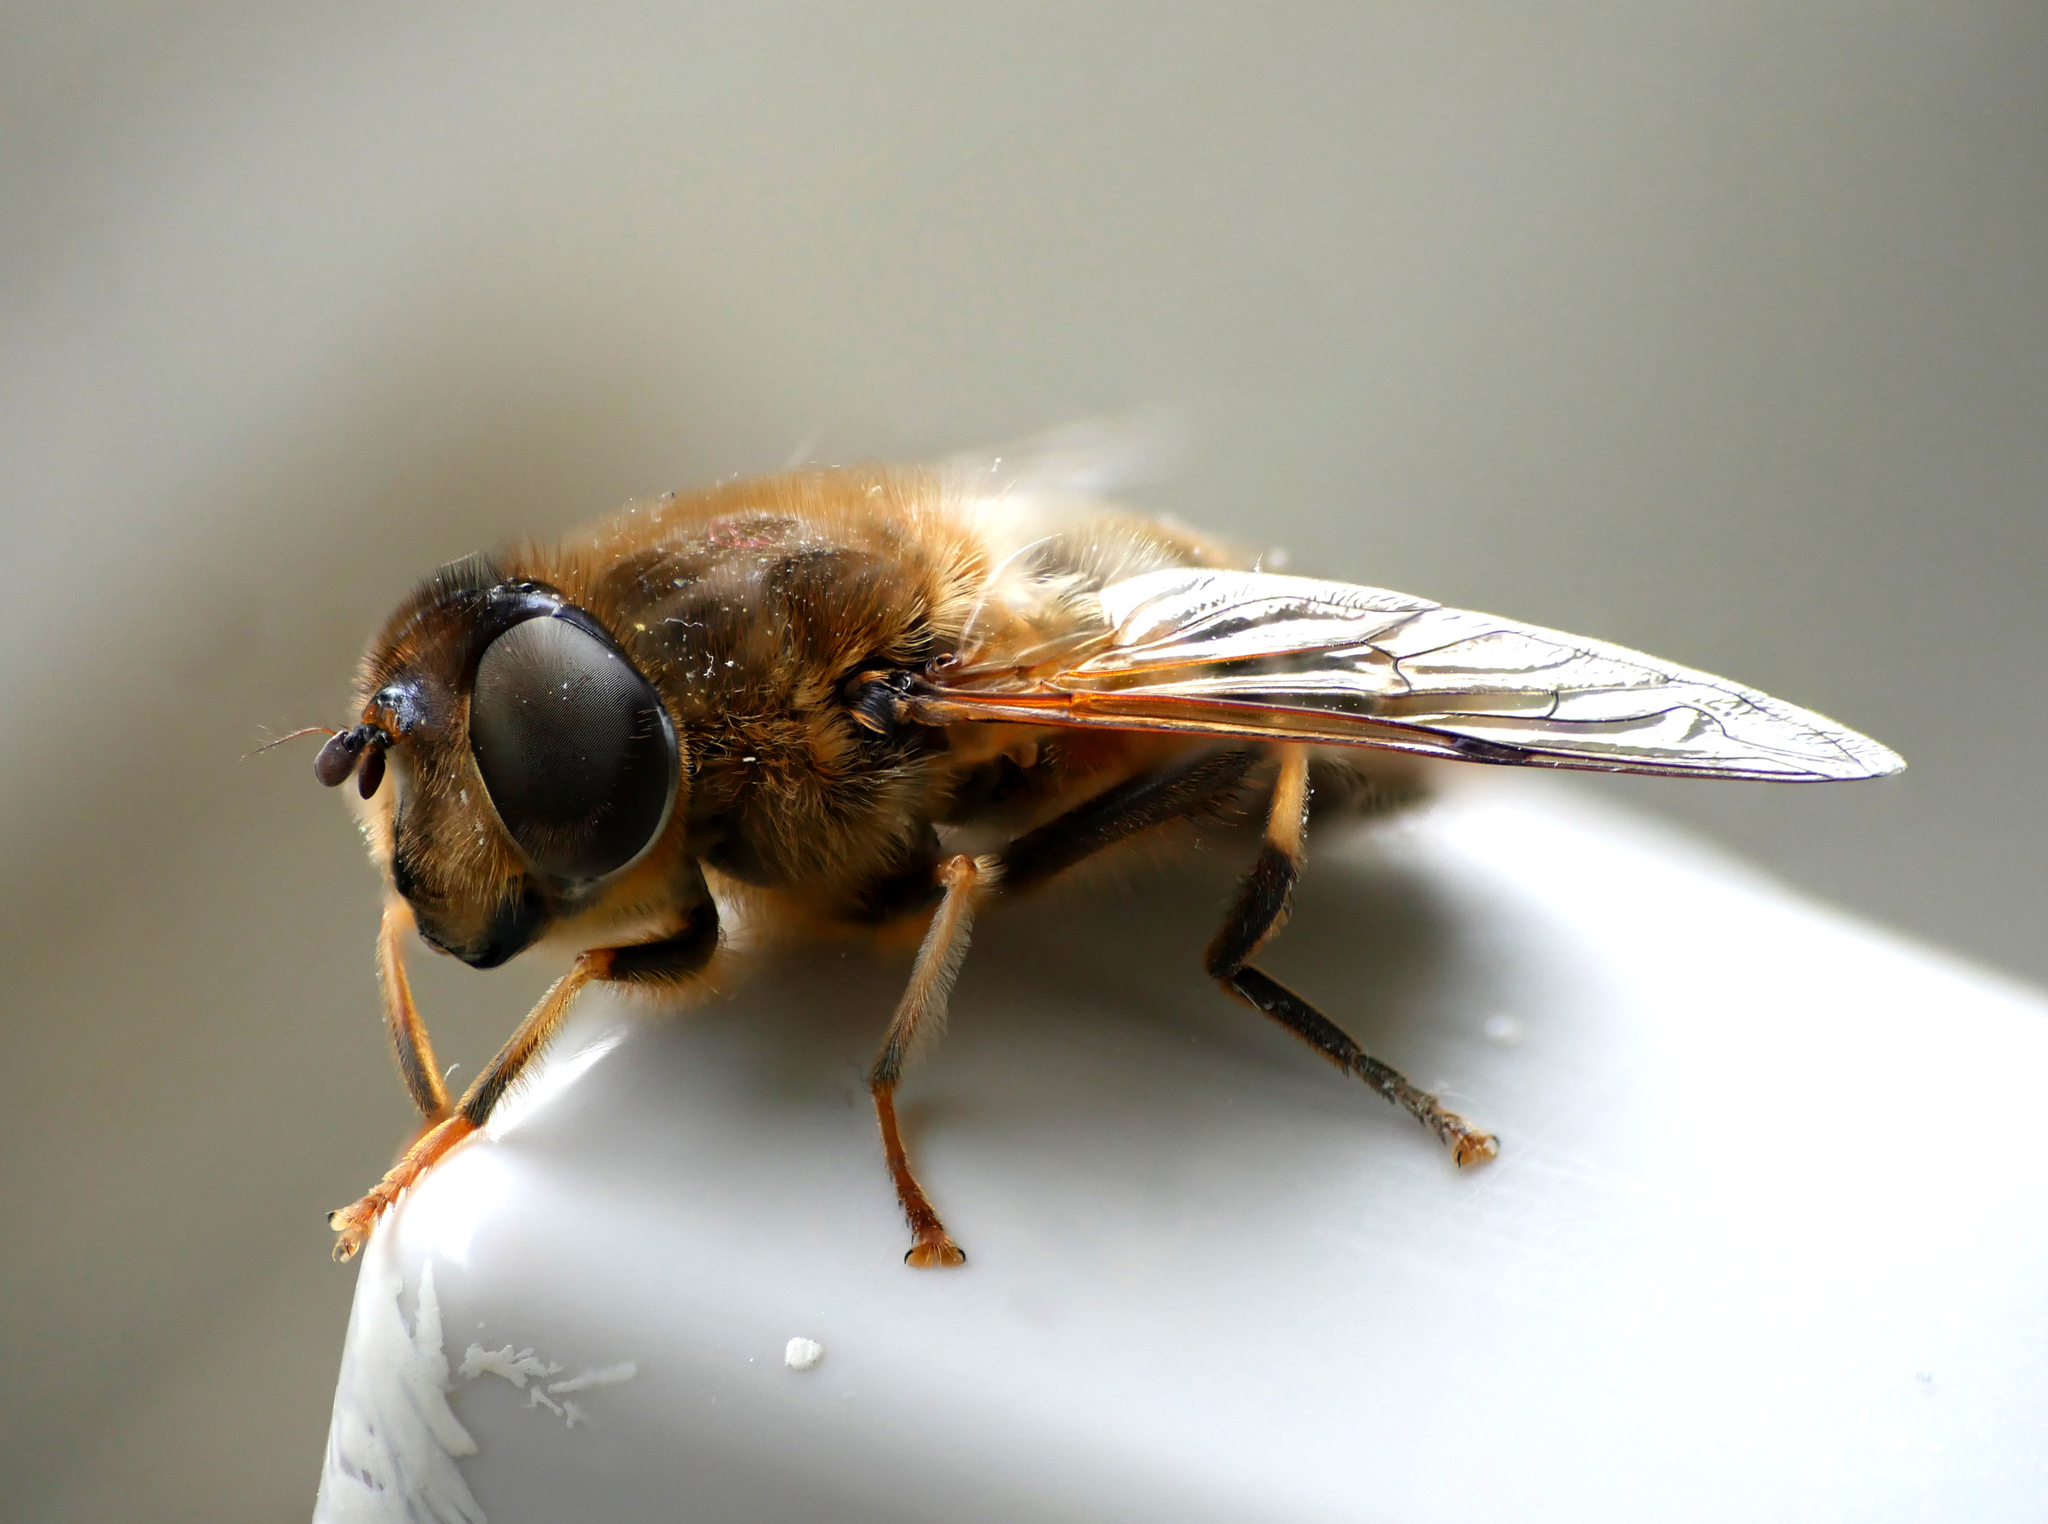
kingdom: Animalia
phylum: Arthropoda
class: Insecta
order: Diptera
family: Syrphidae
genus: Eristalis
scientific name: Eristalis pertinax
